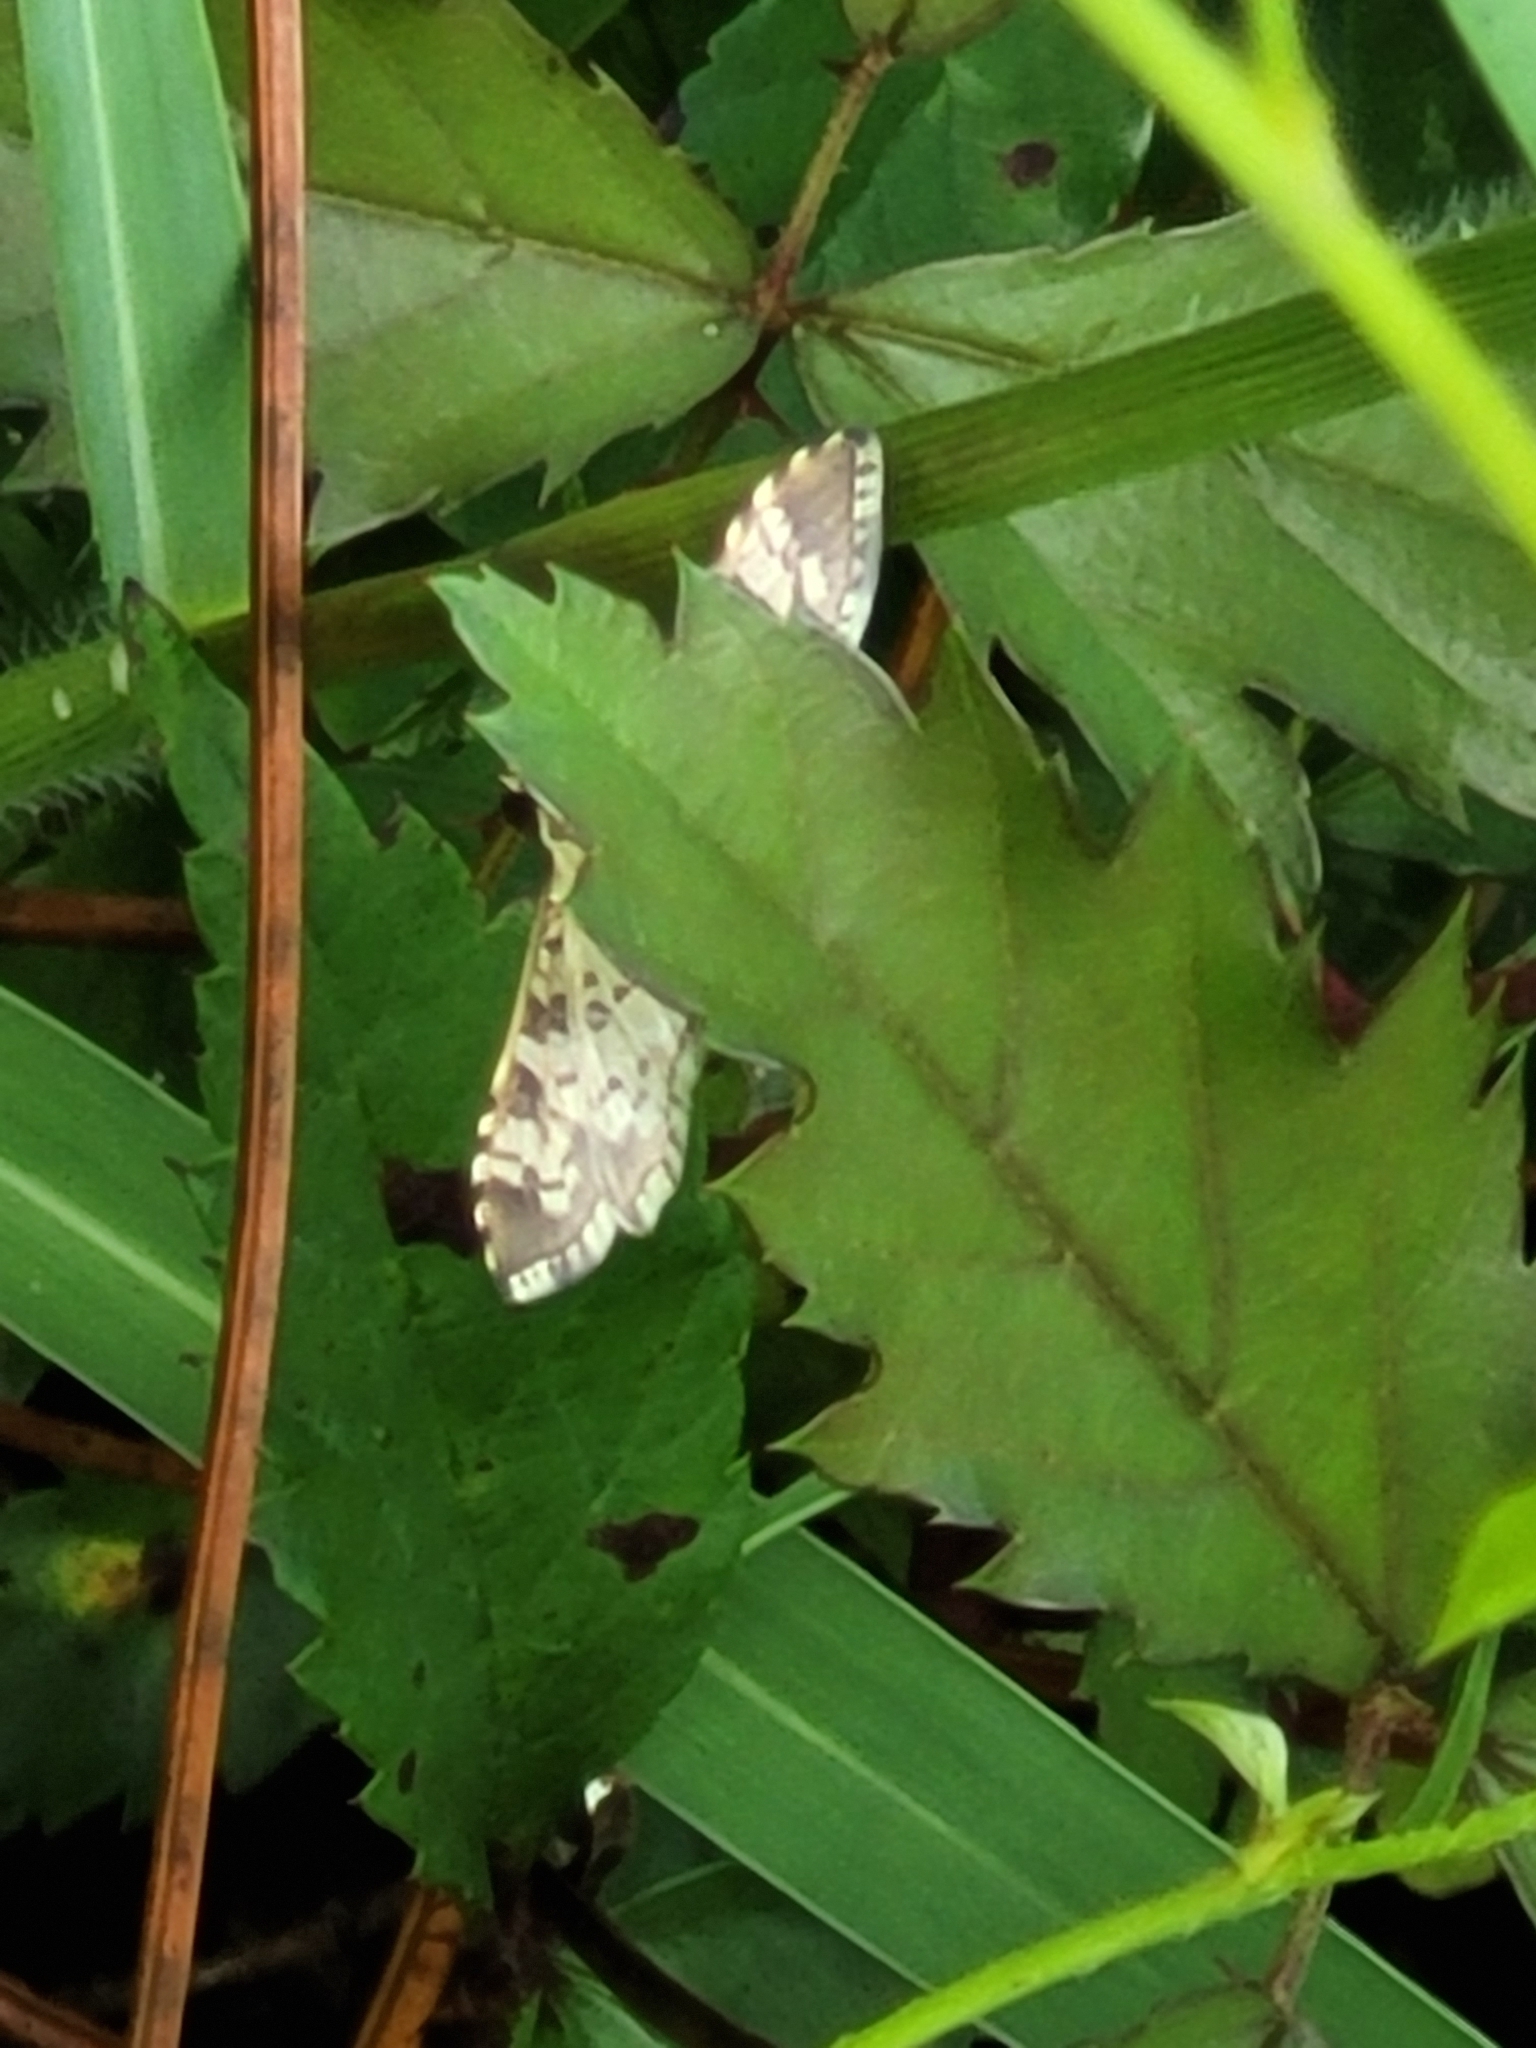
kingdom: Animalia
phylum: Arthropoda
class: Insecta
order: Lepidoptera
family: Crambidae
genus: Samea
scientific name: Samea ecclesialis
